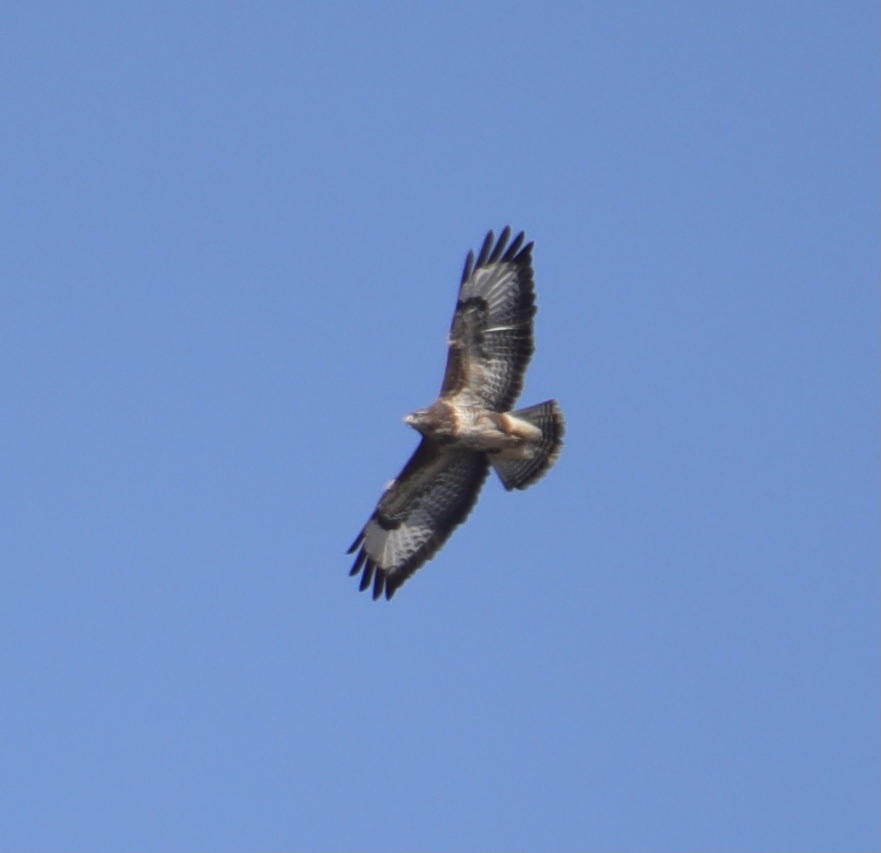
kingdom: Animalia
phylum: Chordata
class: Aves
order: Accipitriformes
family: Accipitridae
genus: Buteo
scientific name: Buteo buteo
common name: Common buzzard
